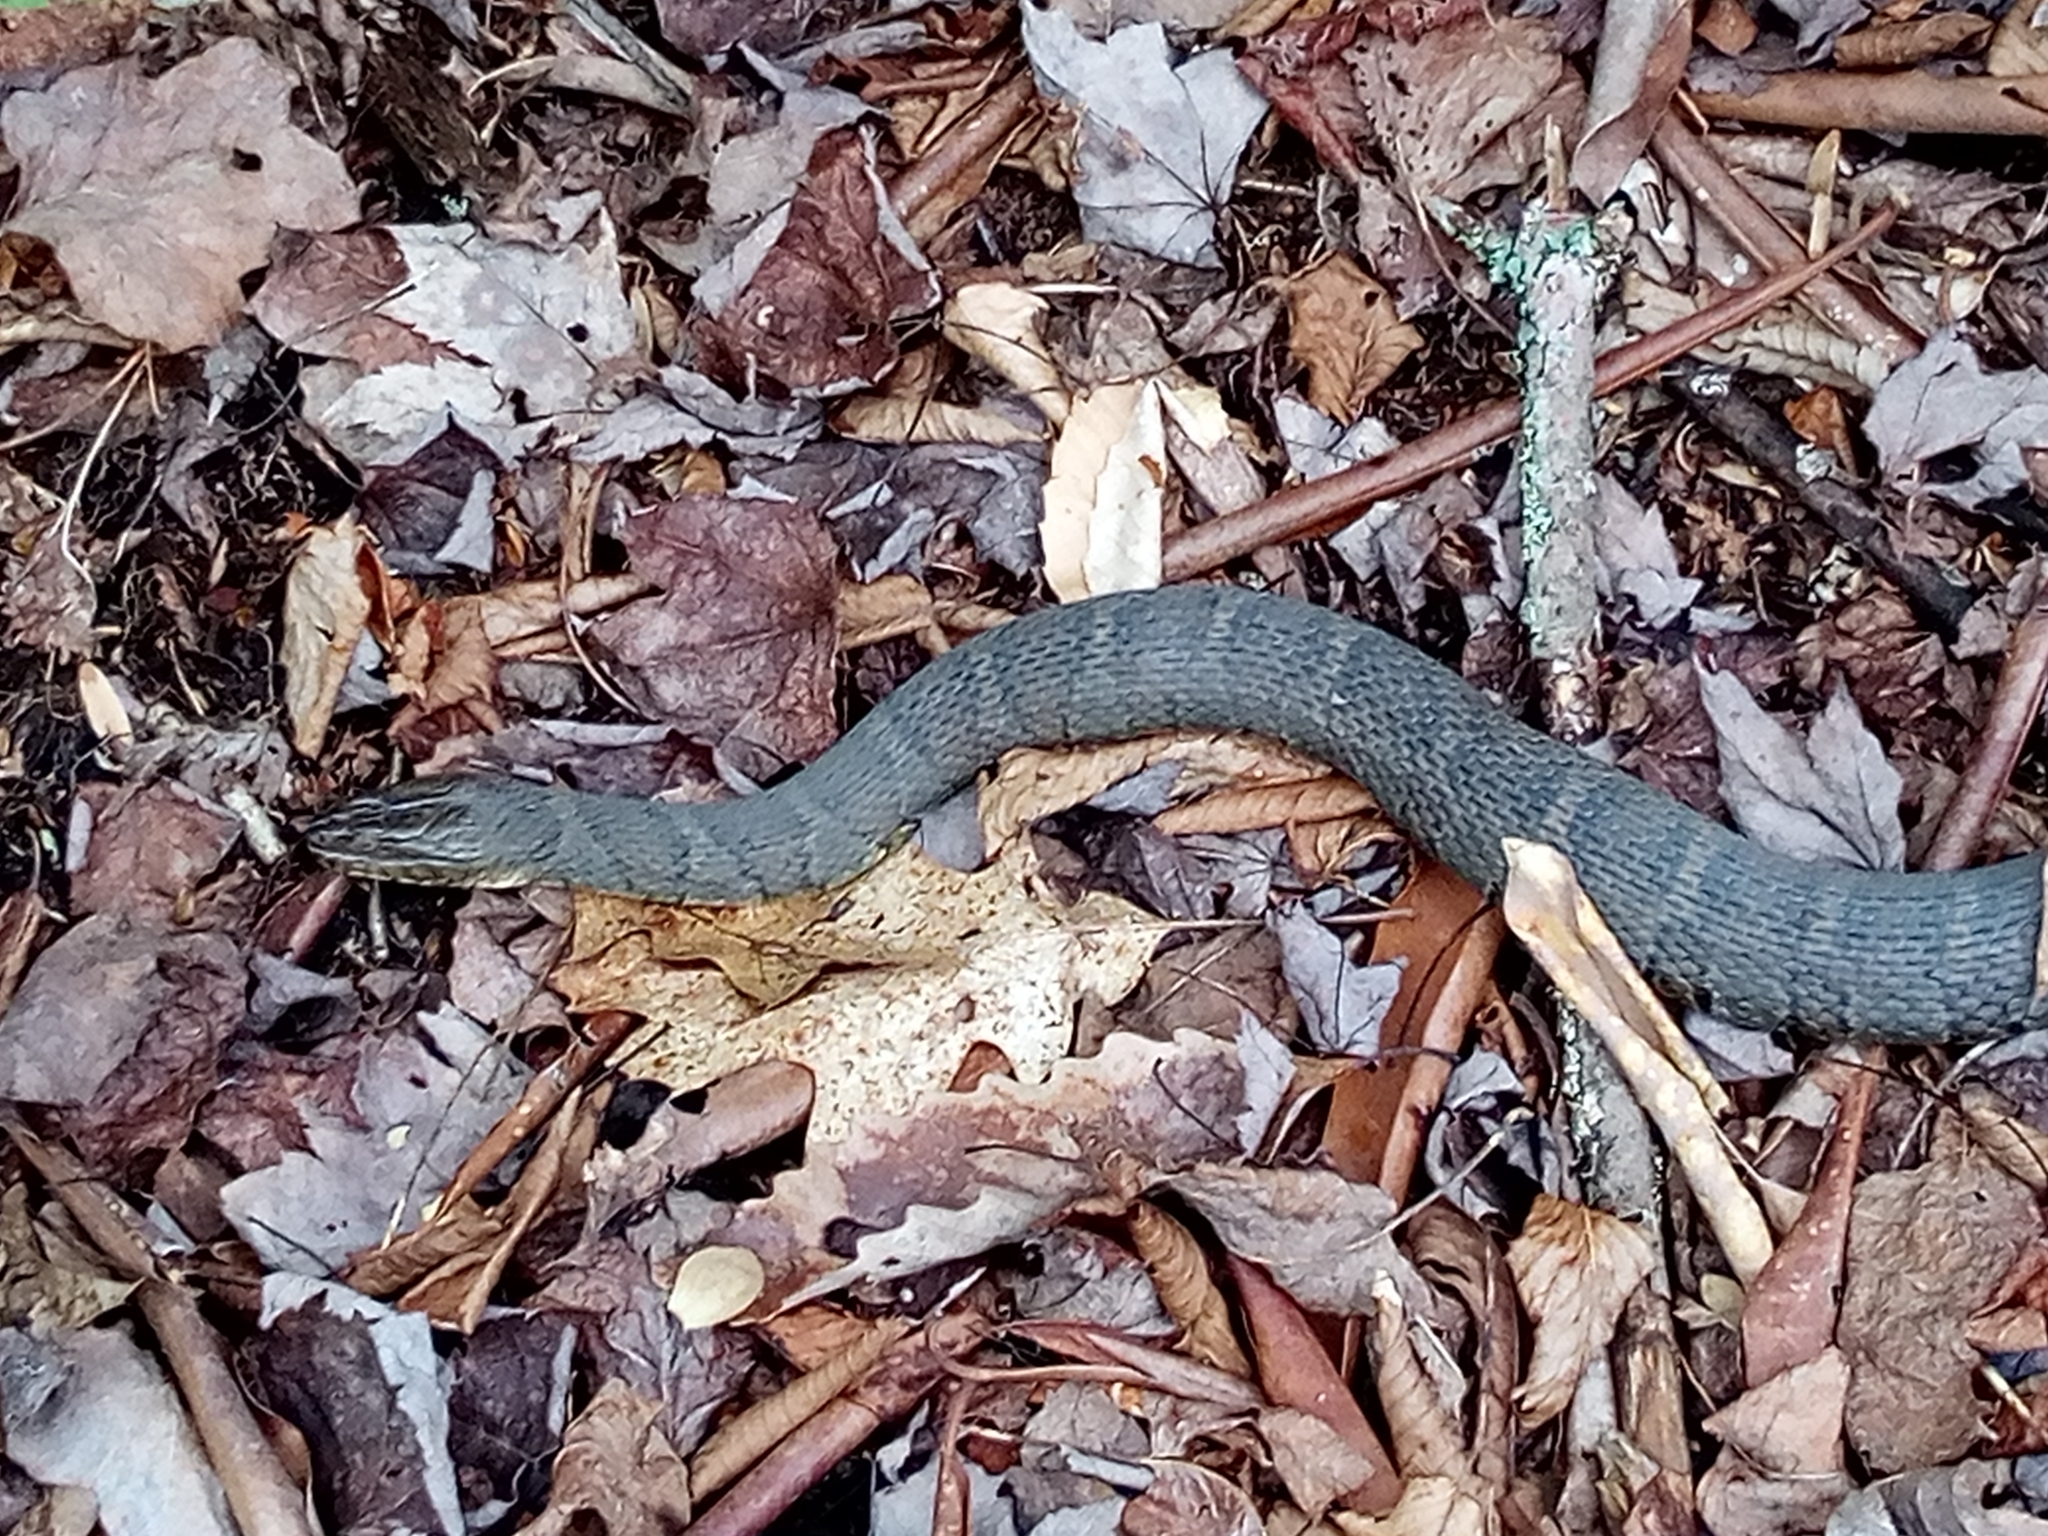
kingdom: Animalia
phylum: Chordata
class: Squamata
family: Colubridae
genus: Nerodia
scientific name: Nerodia sipedon
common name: Northern water snake
